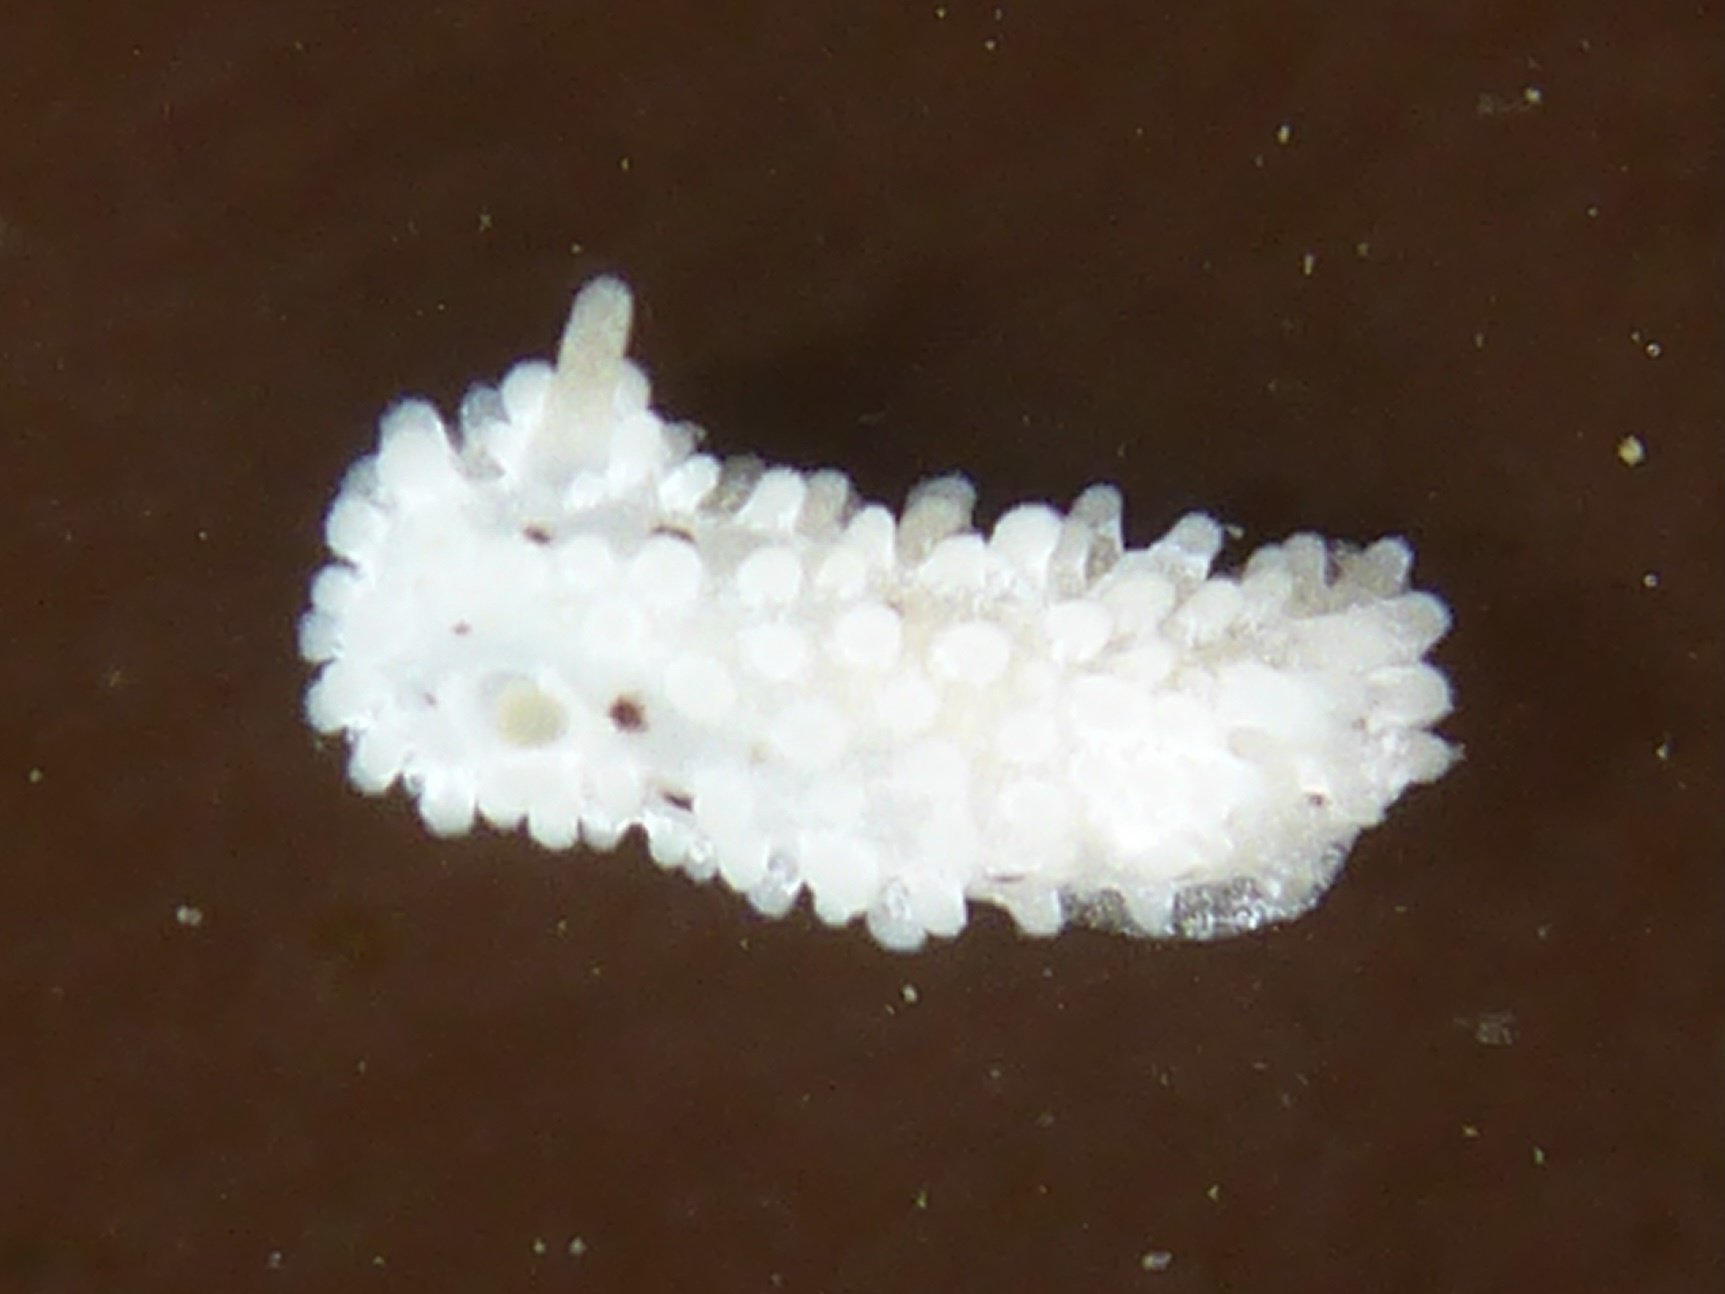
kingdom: Animalia
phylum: Mollusca
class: Gastropoda
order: Nudibranchia
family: Aegiridae
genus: Aegires
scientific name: Aegires albopunctatus
